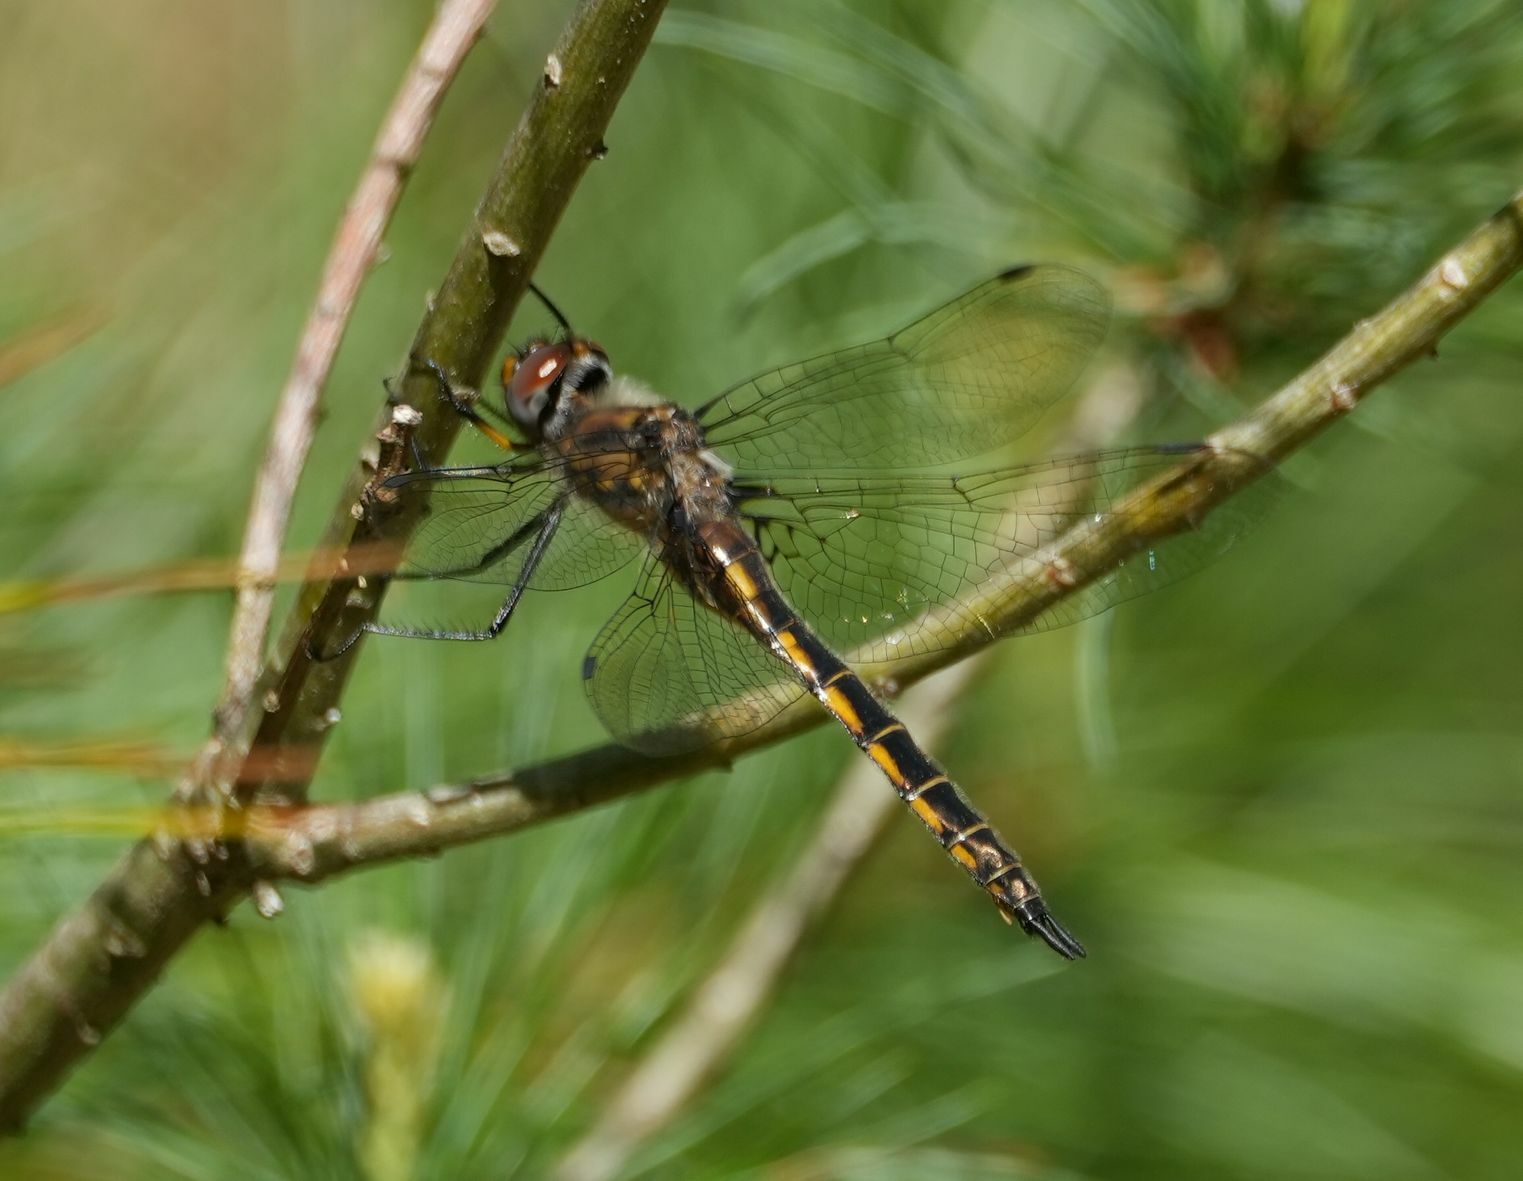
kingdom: Animalia
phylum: Arthropoda
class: Insecta
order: Odonata
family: Corduliidae
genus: Epitheca
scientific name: Epitheca spinigera
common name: Spiny baskettail
